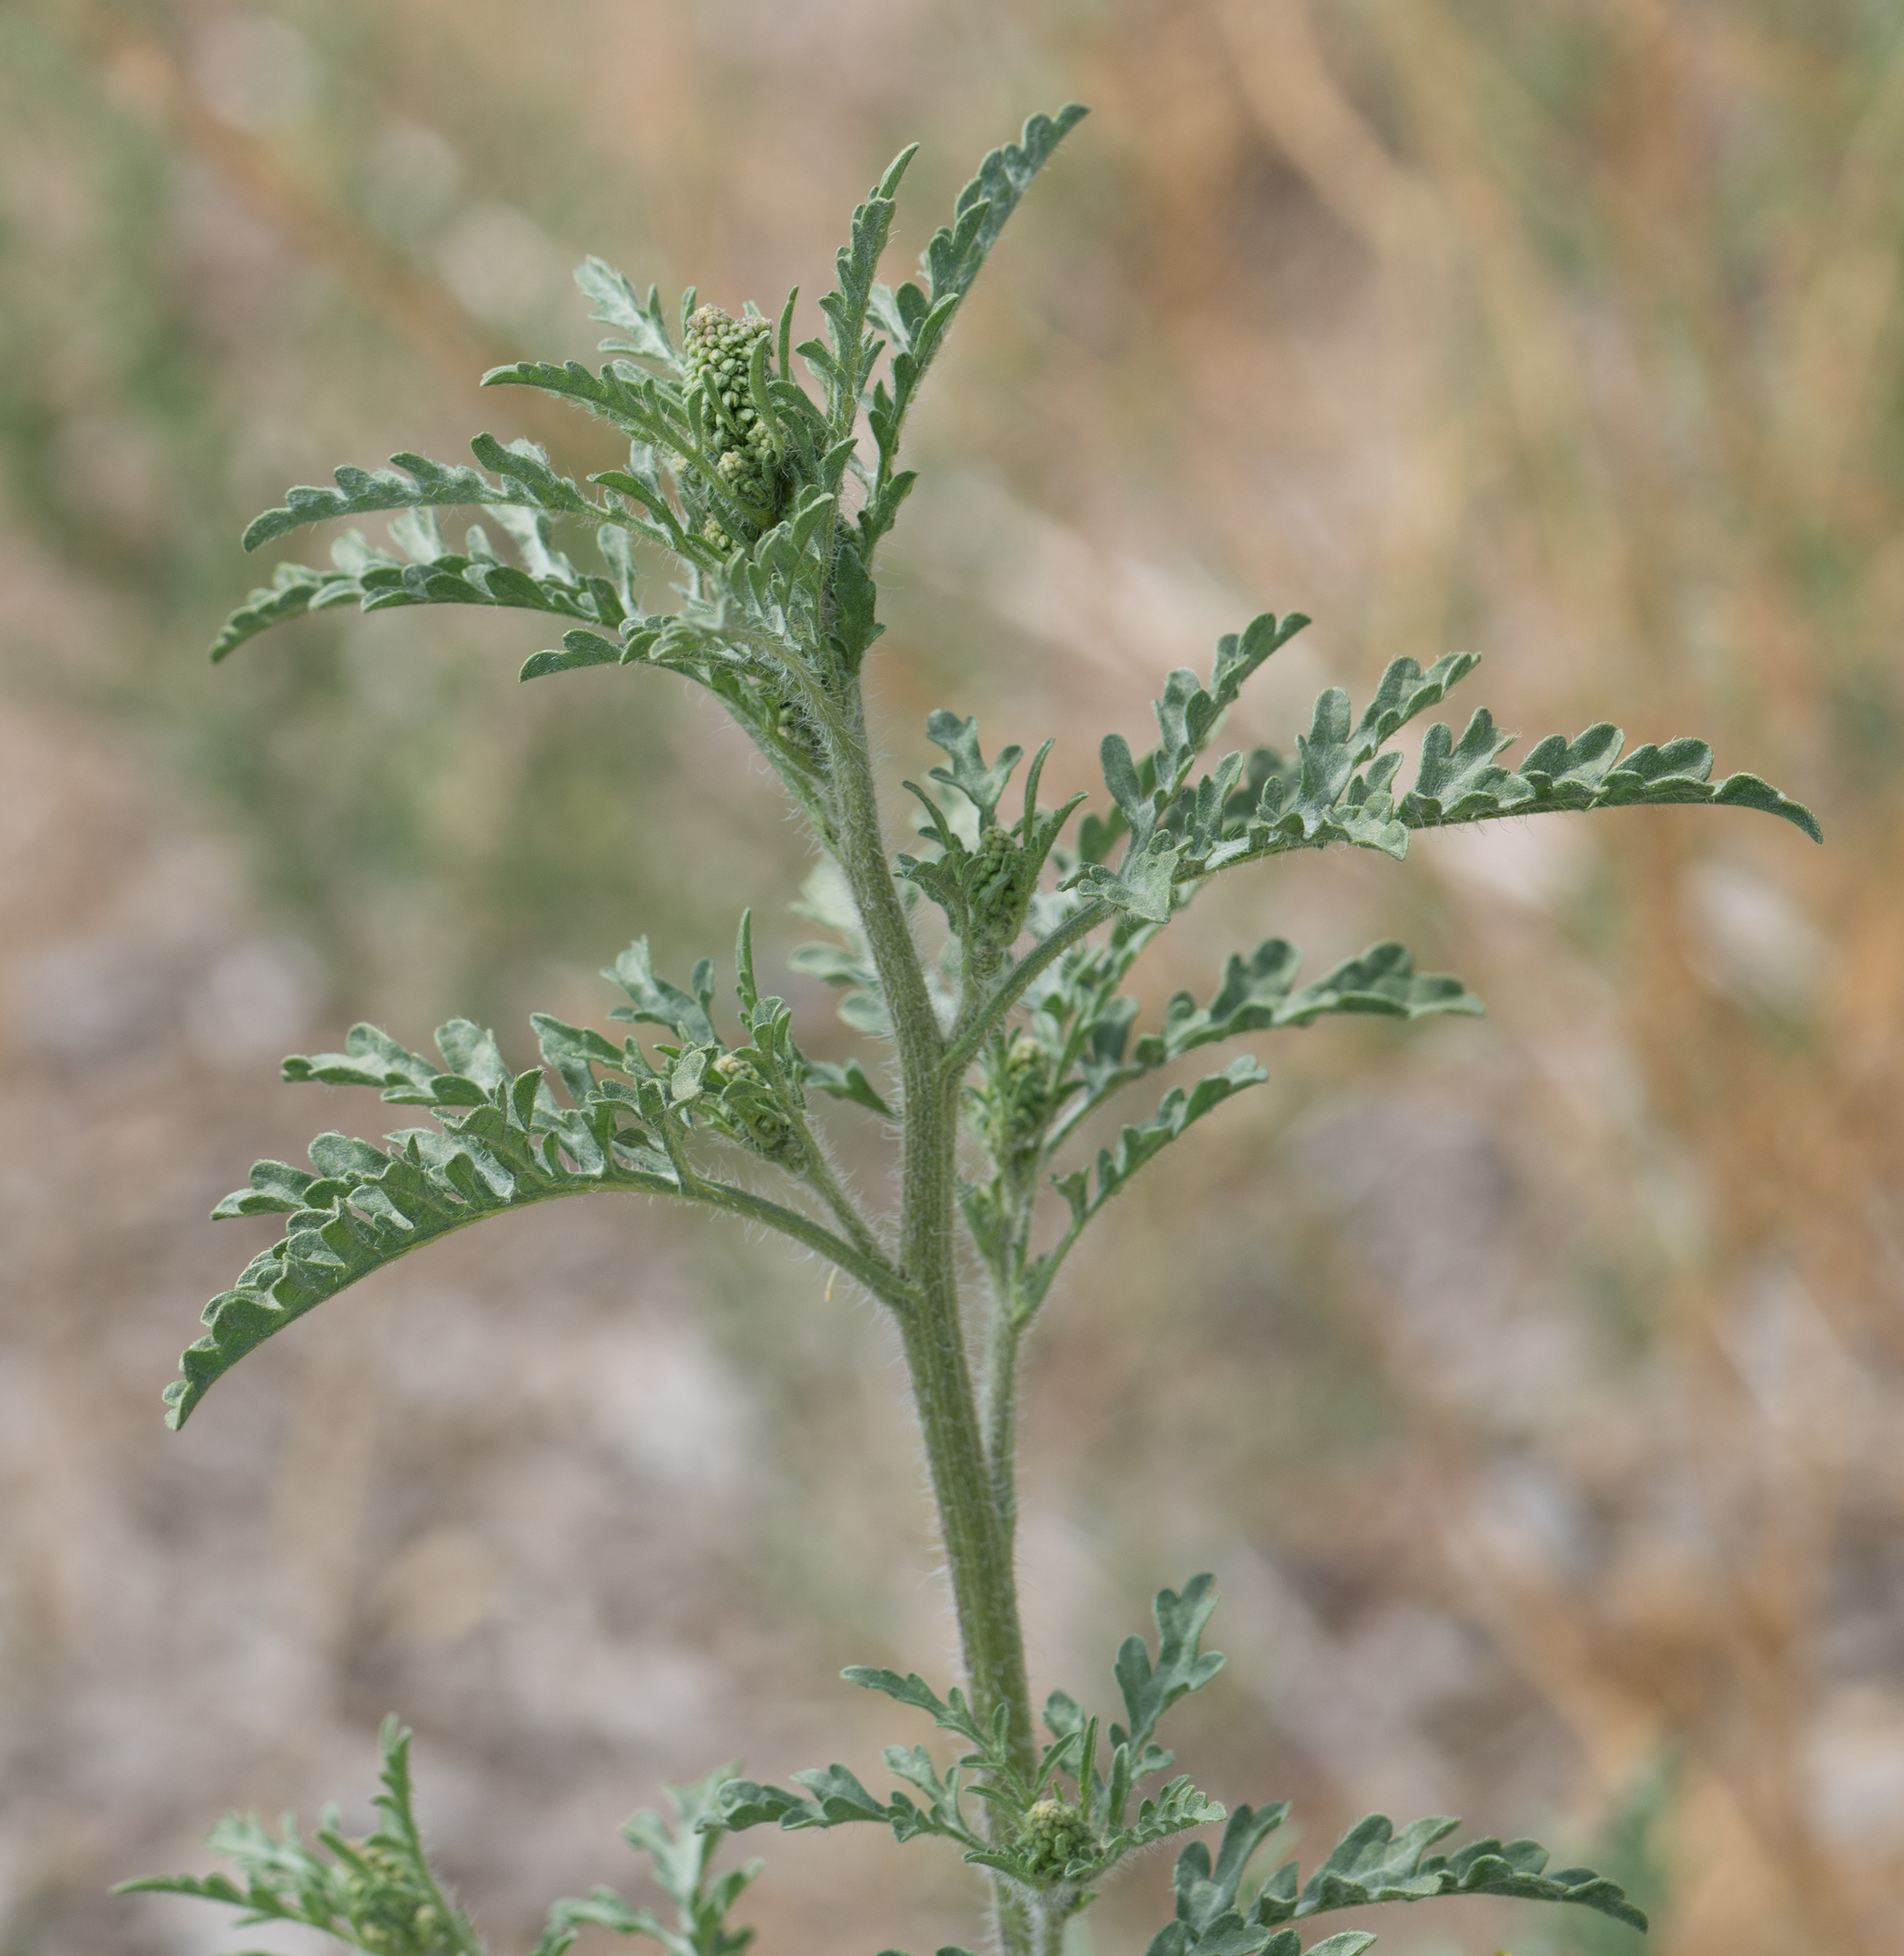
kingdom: Plantae
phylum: Tracheophyta
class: Magnoliopsida
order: Asterales
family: Asteraceae
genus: Ambrosia
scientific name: Ambrosia acanthicarpa
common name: Hooker's bur ragweed
